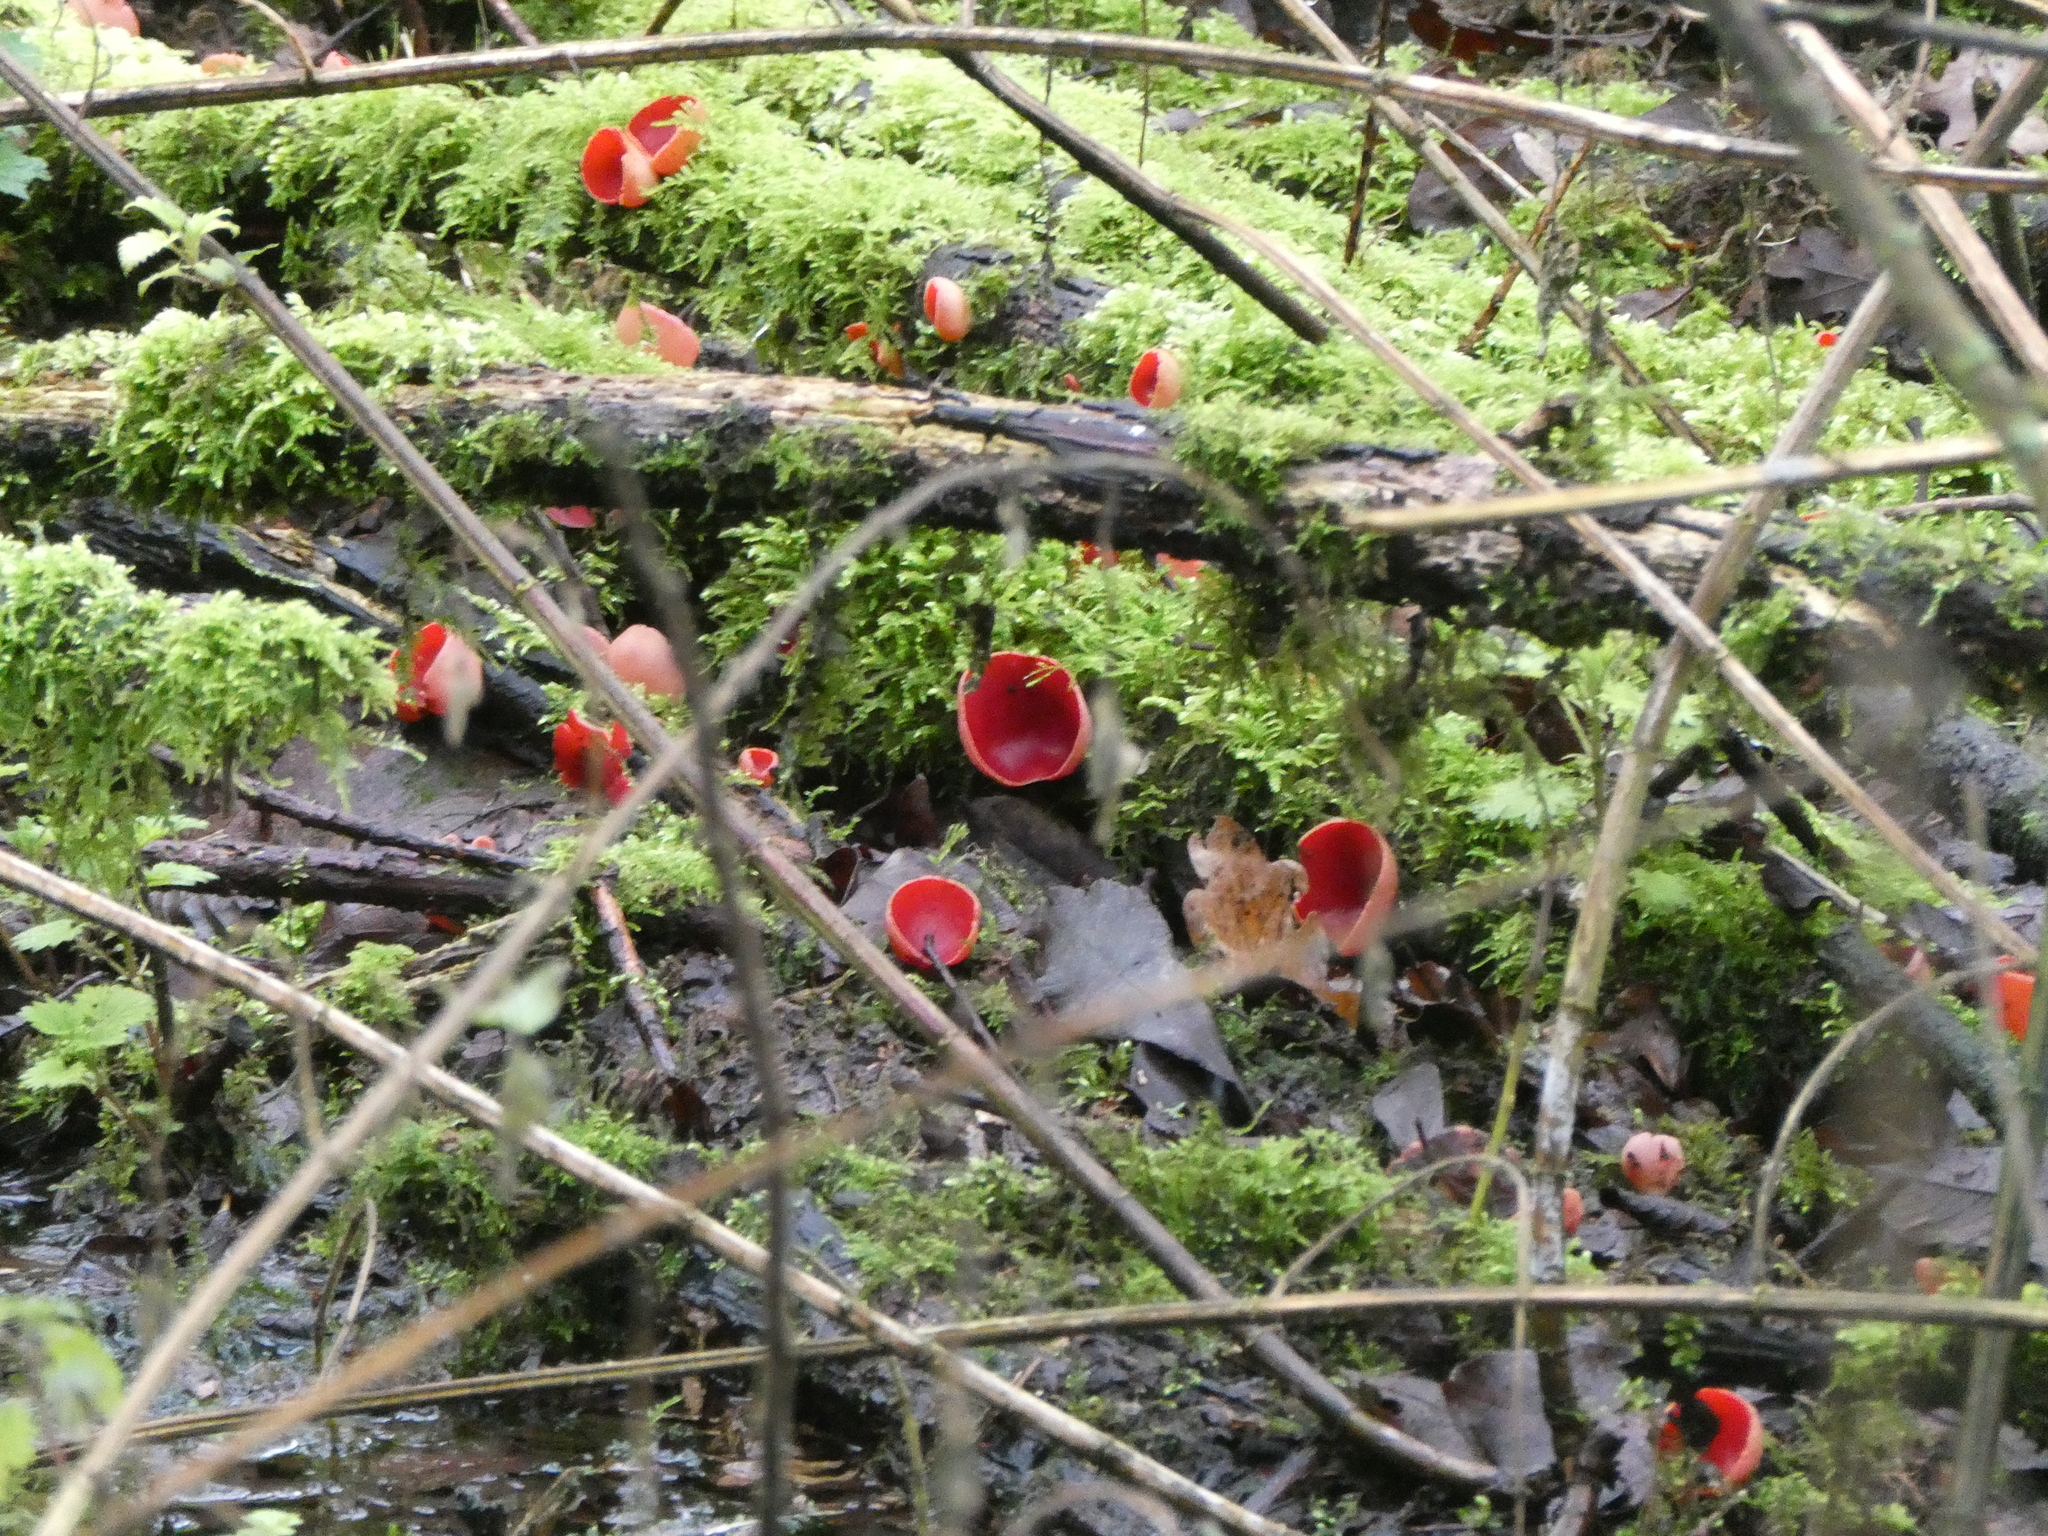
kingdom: Fungi
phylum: Ascomycota
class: Pezizomycetes
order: Pezizales
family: Sarcoscyphaceae
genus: Sarcoscypha
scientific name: Sarcoscypha
